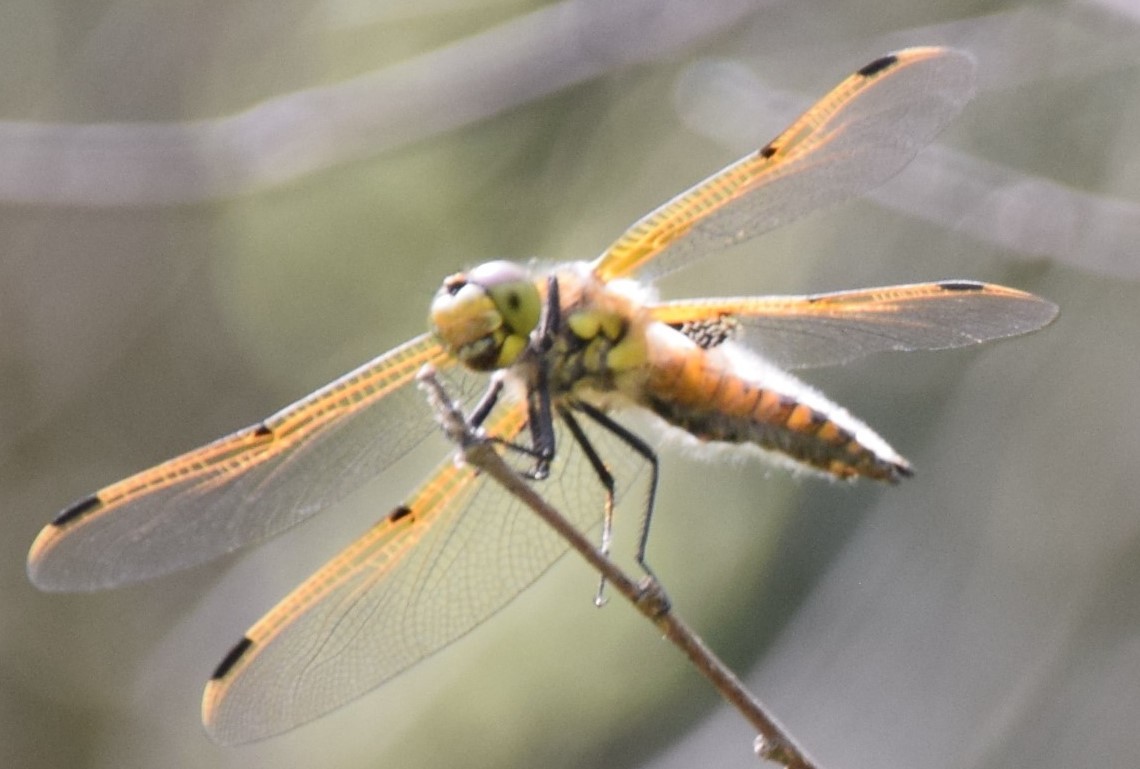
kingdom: Animalia
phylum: Arthropoda
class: Insecta
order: Odonata
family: Libellulidae
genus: Libellula
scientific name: Libellula quadrimaculata
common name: Four-spotted chaser
